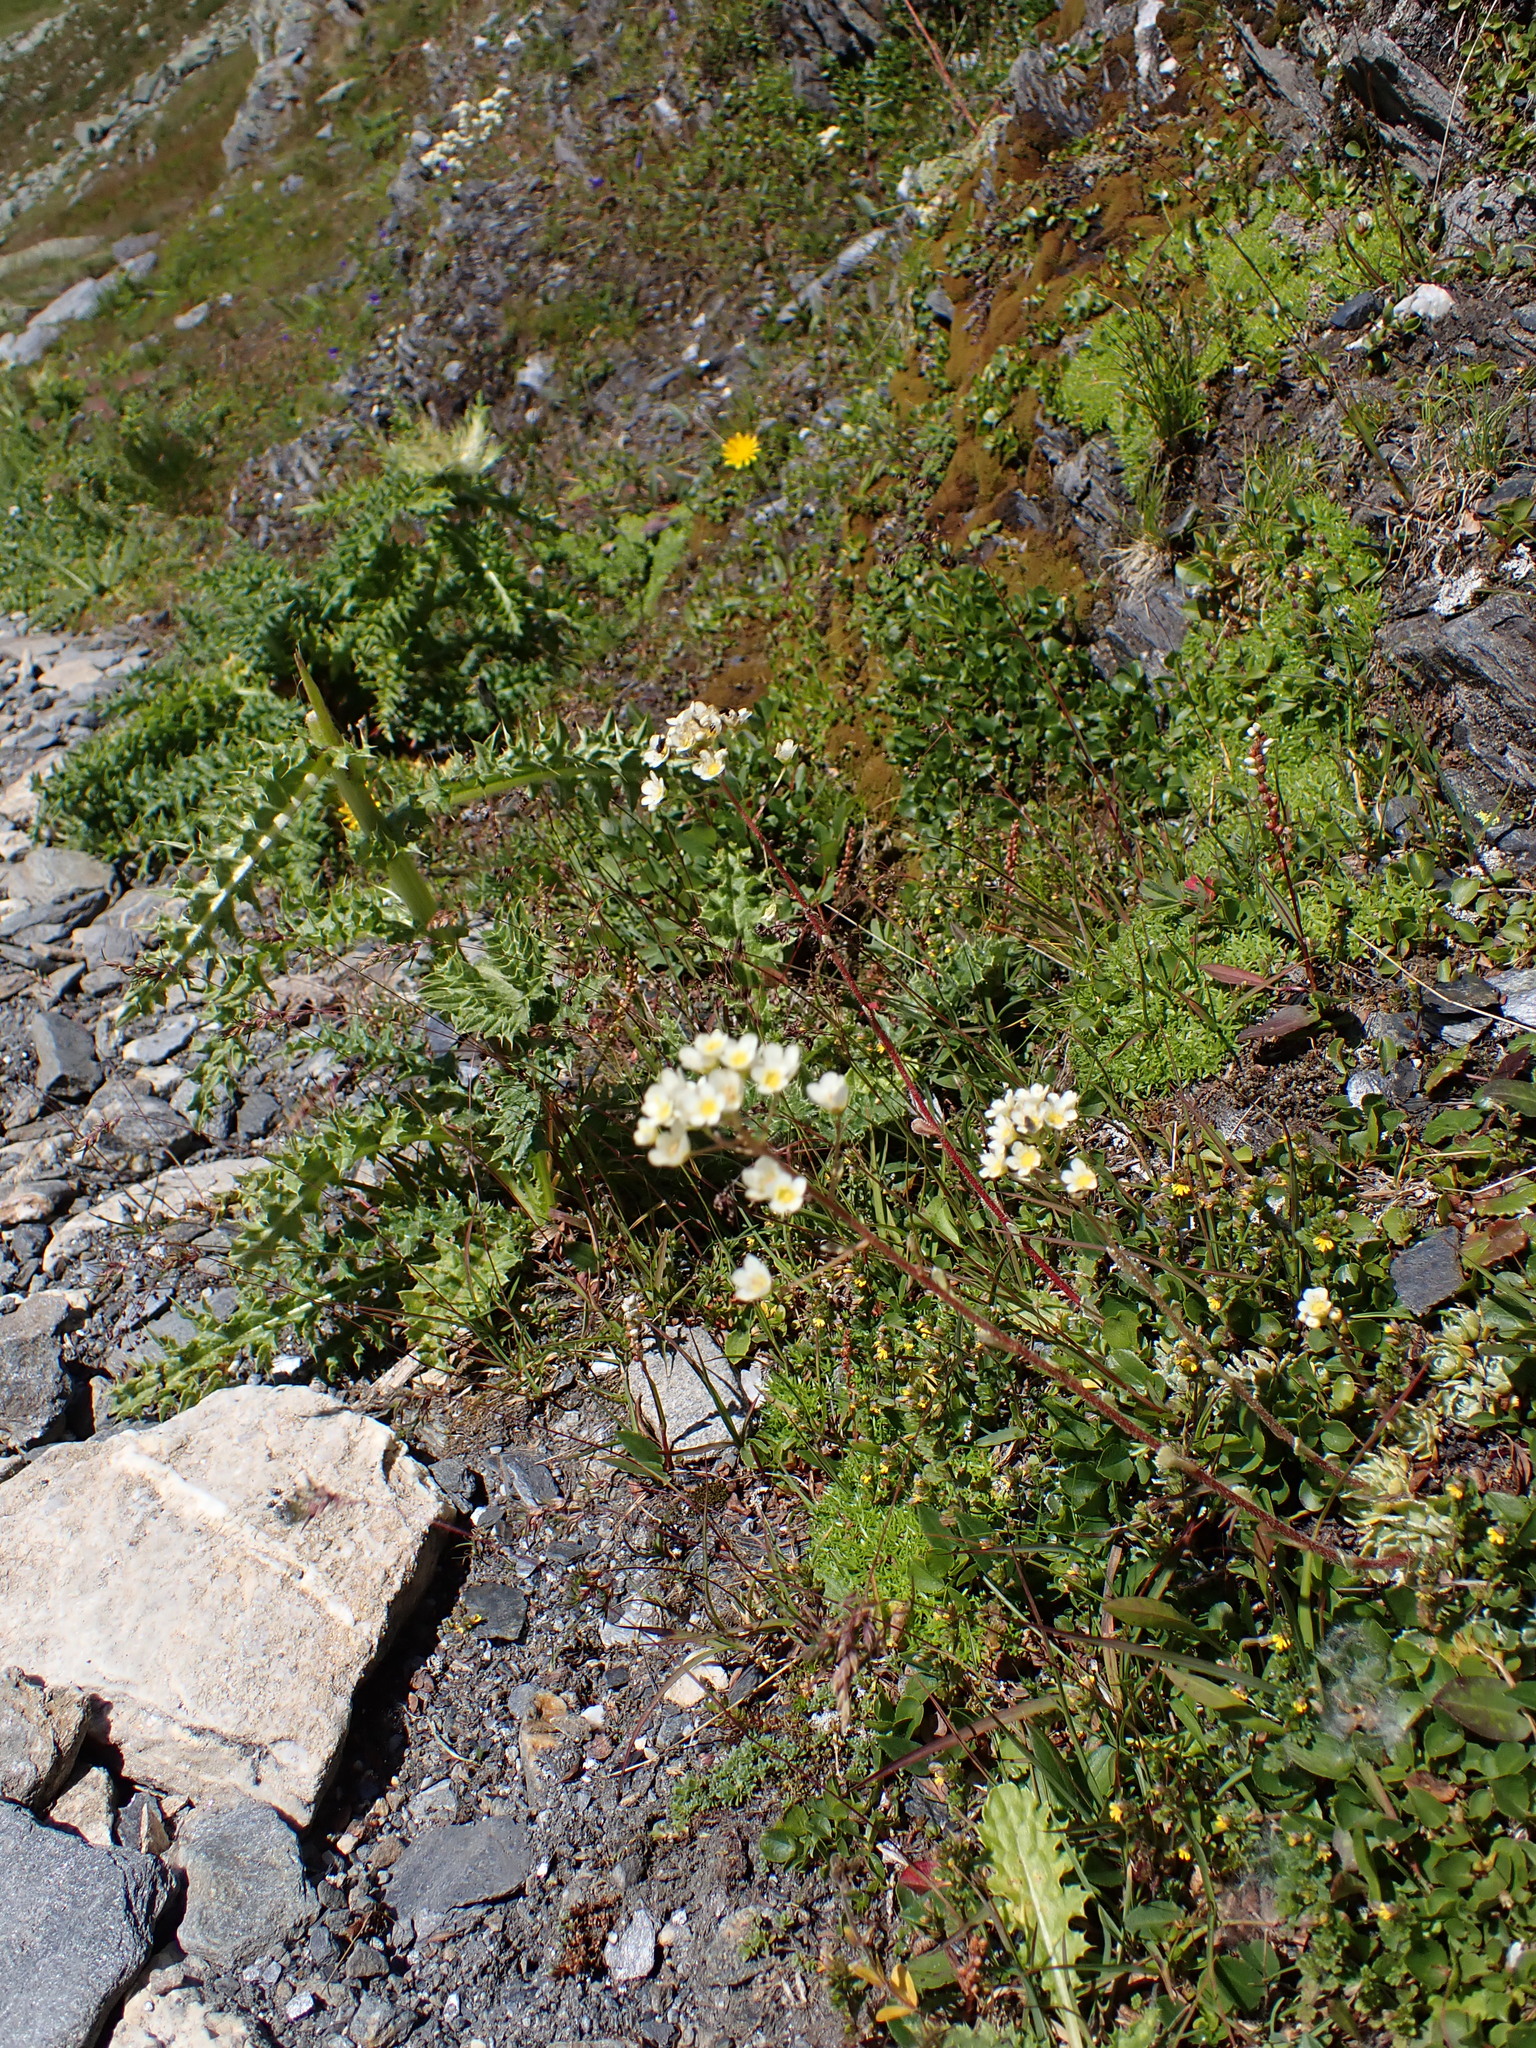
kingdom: Plantae
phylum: Tracheophyta
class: Magnoliopsida
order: Saxifragales
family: Saxifragaceae
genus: Saxifraga
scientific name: Saxifraga paniculata
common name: Livelong saxifrage
